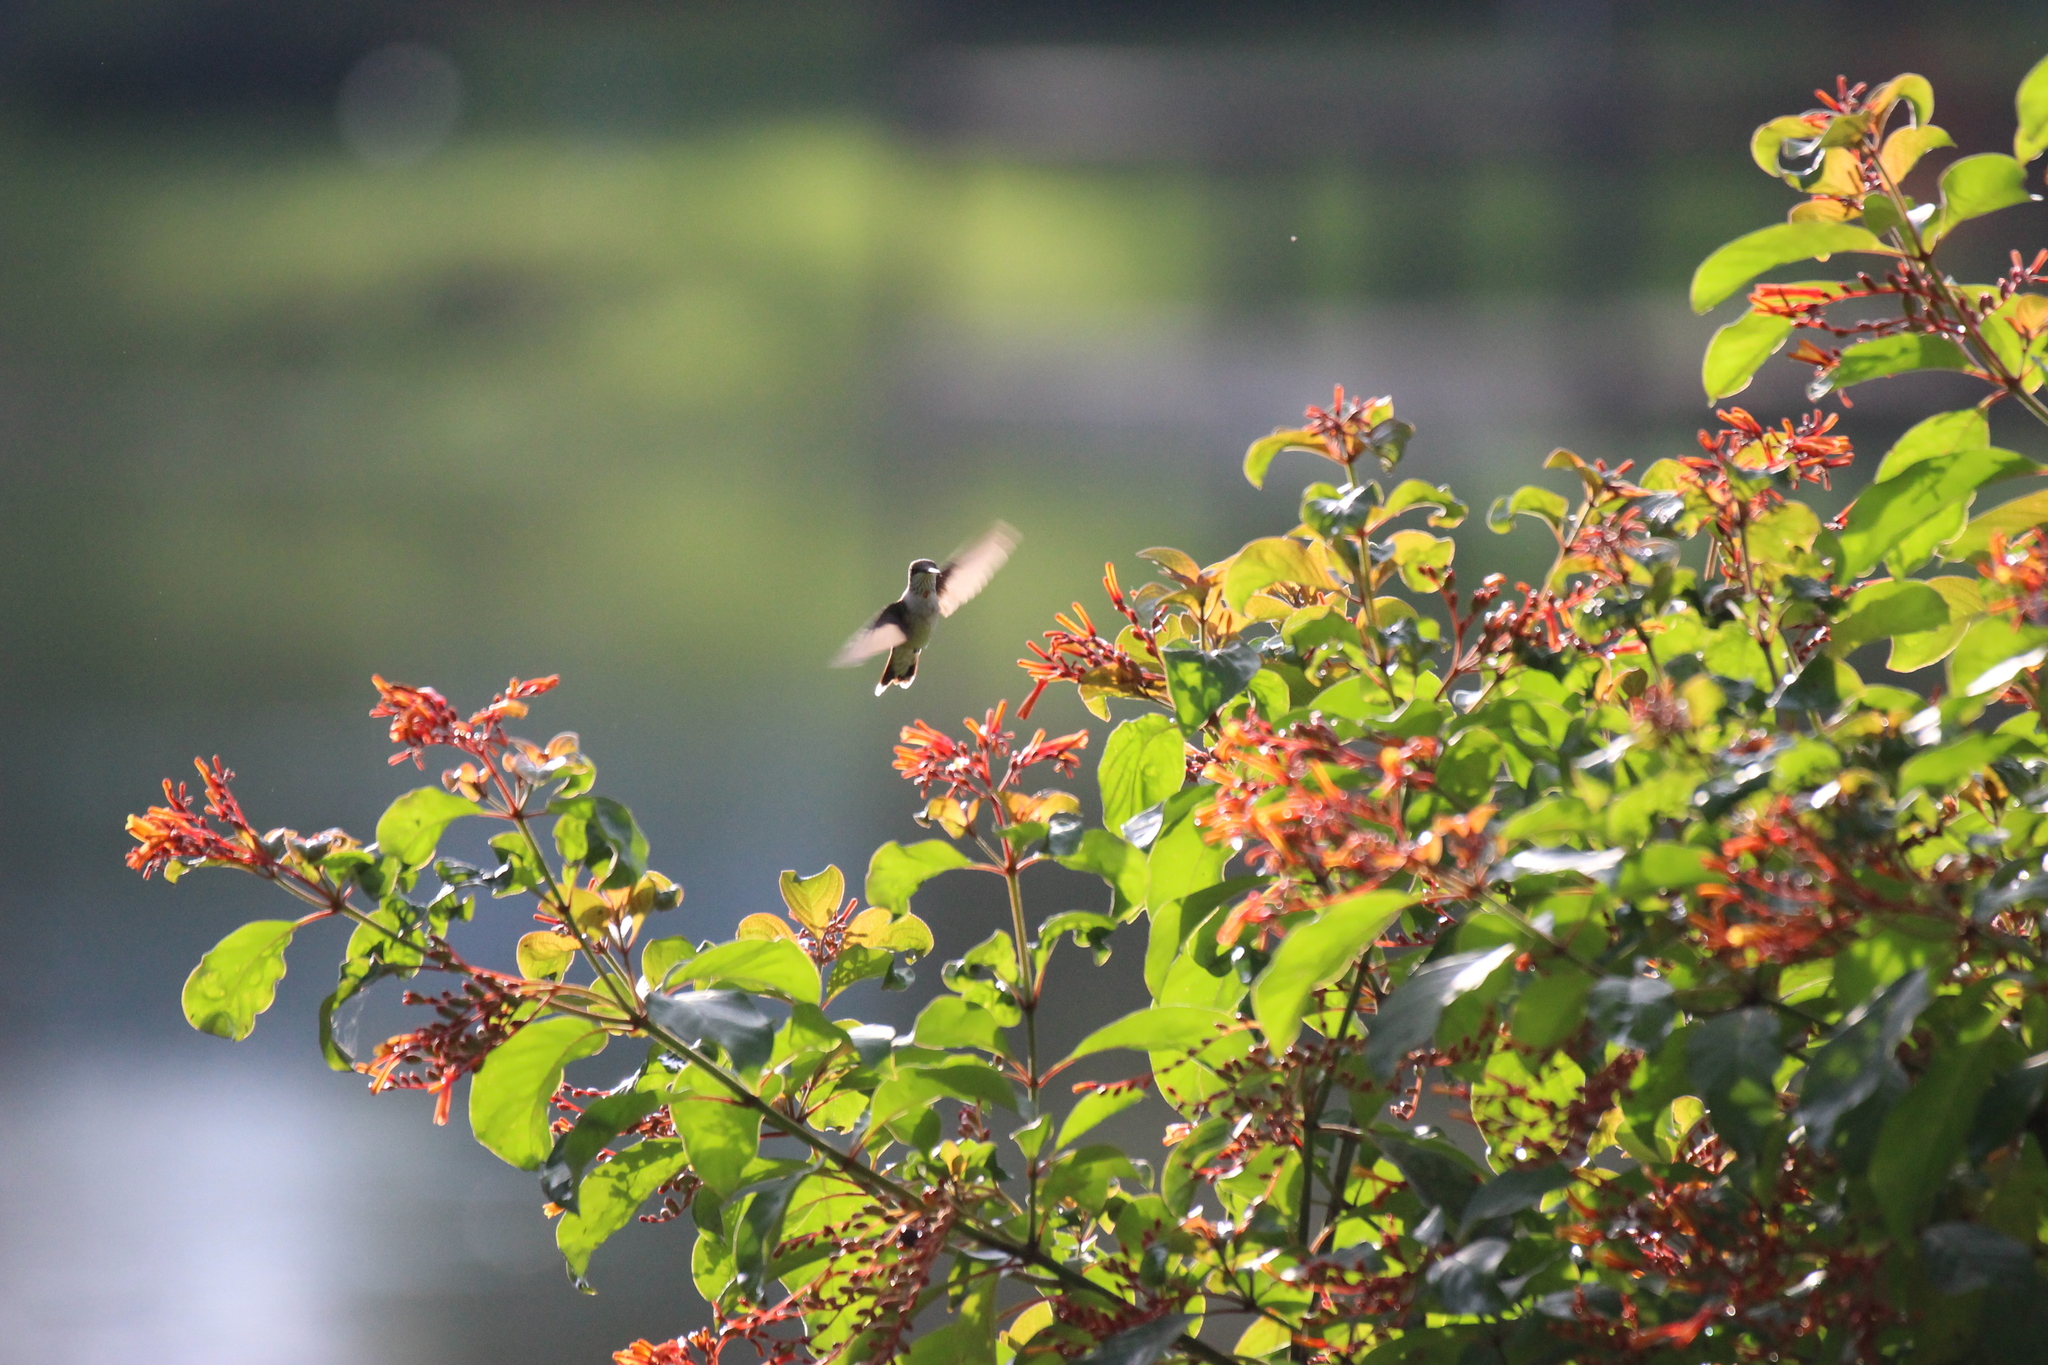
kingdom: Animalia
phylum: Chordata
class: Aves
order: Apodiformes
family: Trochilidae
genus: Archilochus
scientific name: Archilochus colubris
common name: Ruby-throated hummingbird
